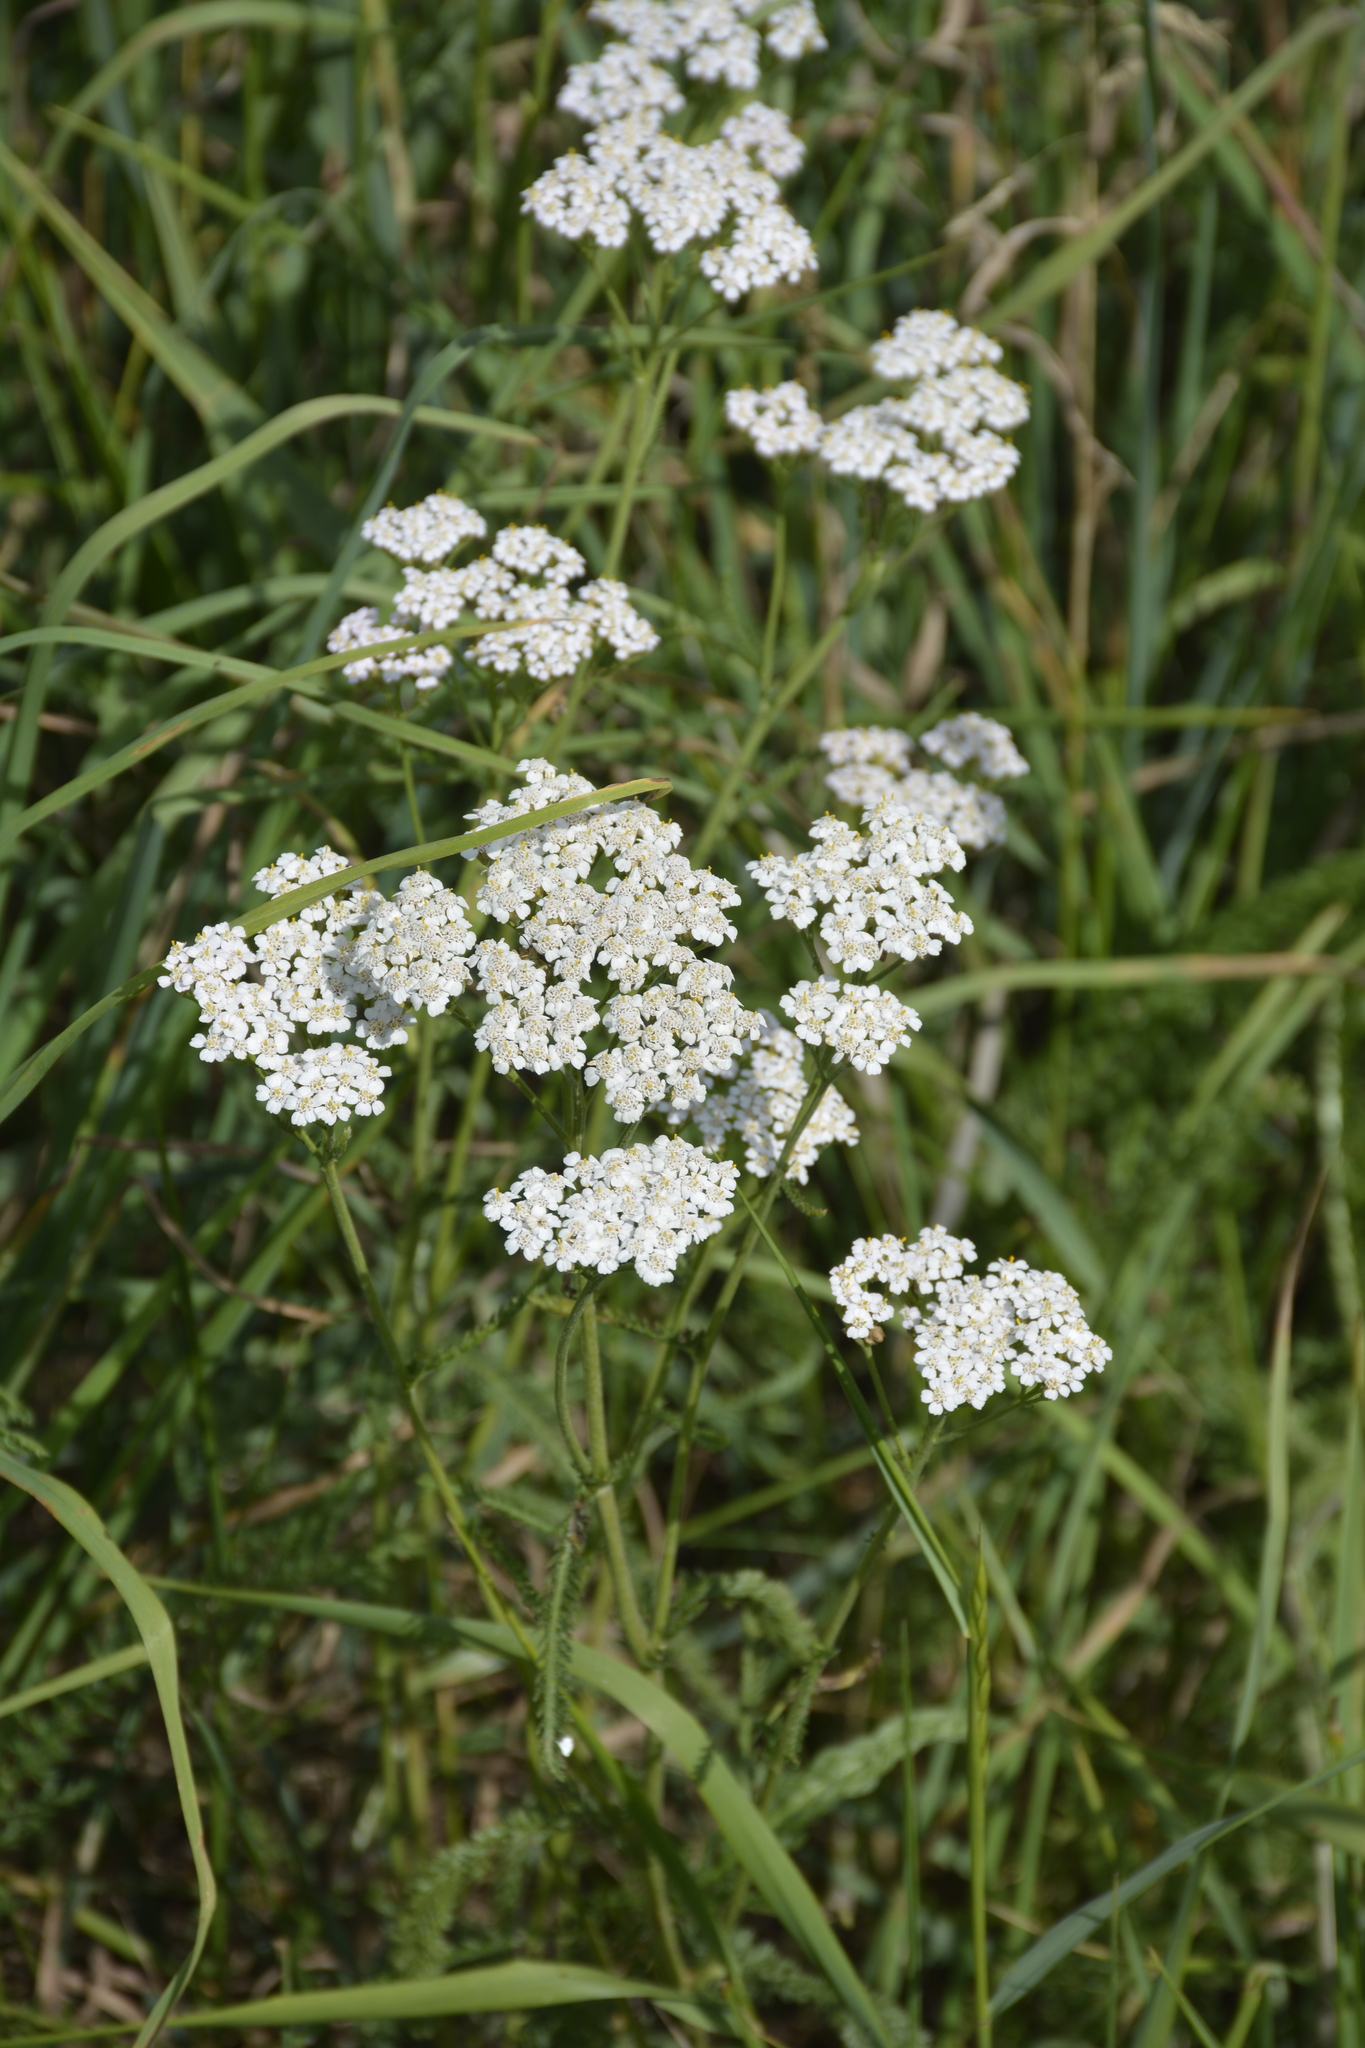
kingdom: Plantae
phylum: Tracheophyta
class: Magnoliopsida
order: Asterales
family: Asteraceae
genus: Achillea
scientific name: Achillea millefolium
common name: Yarrow
